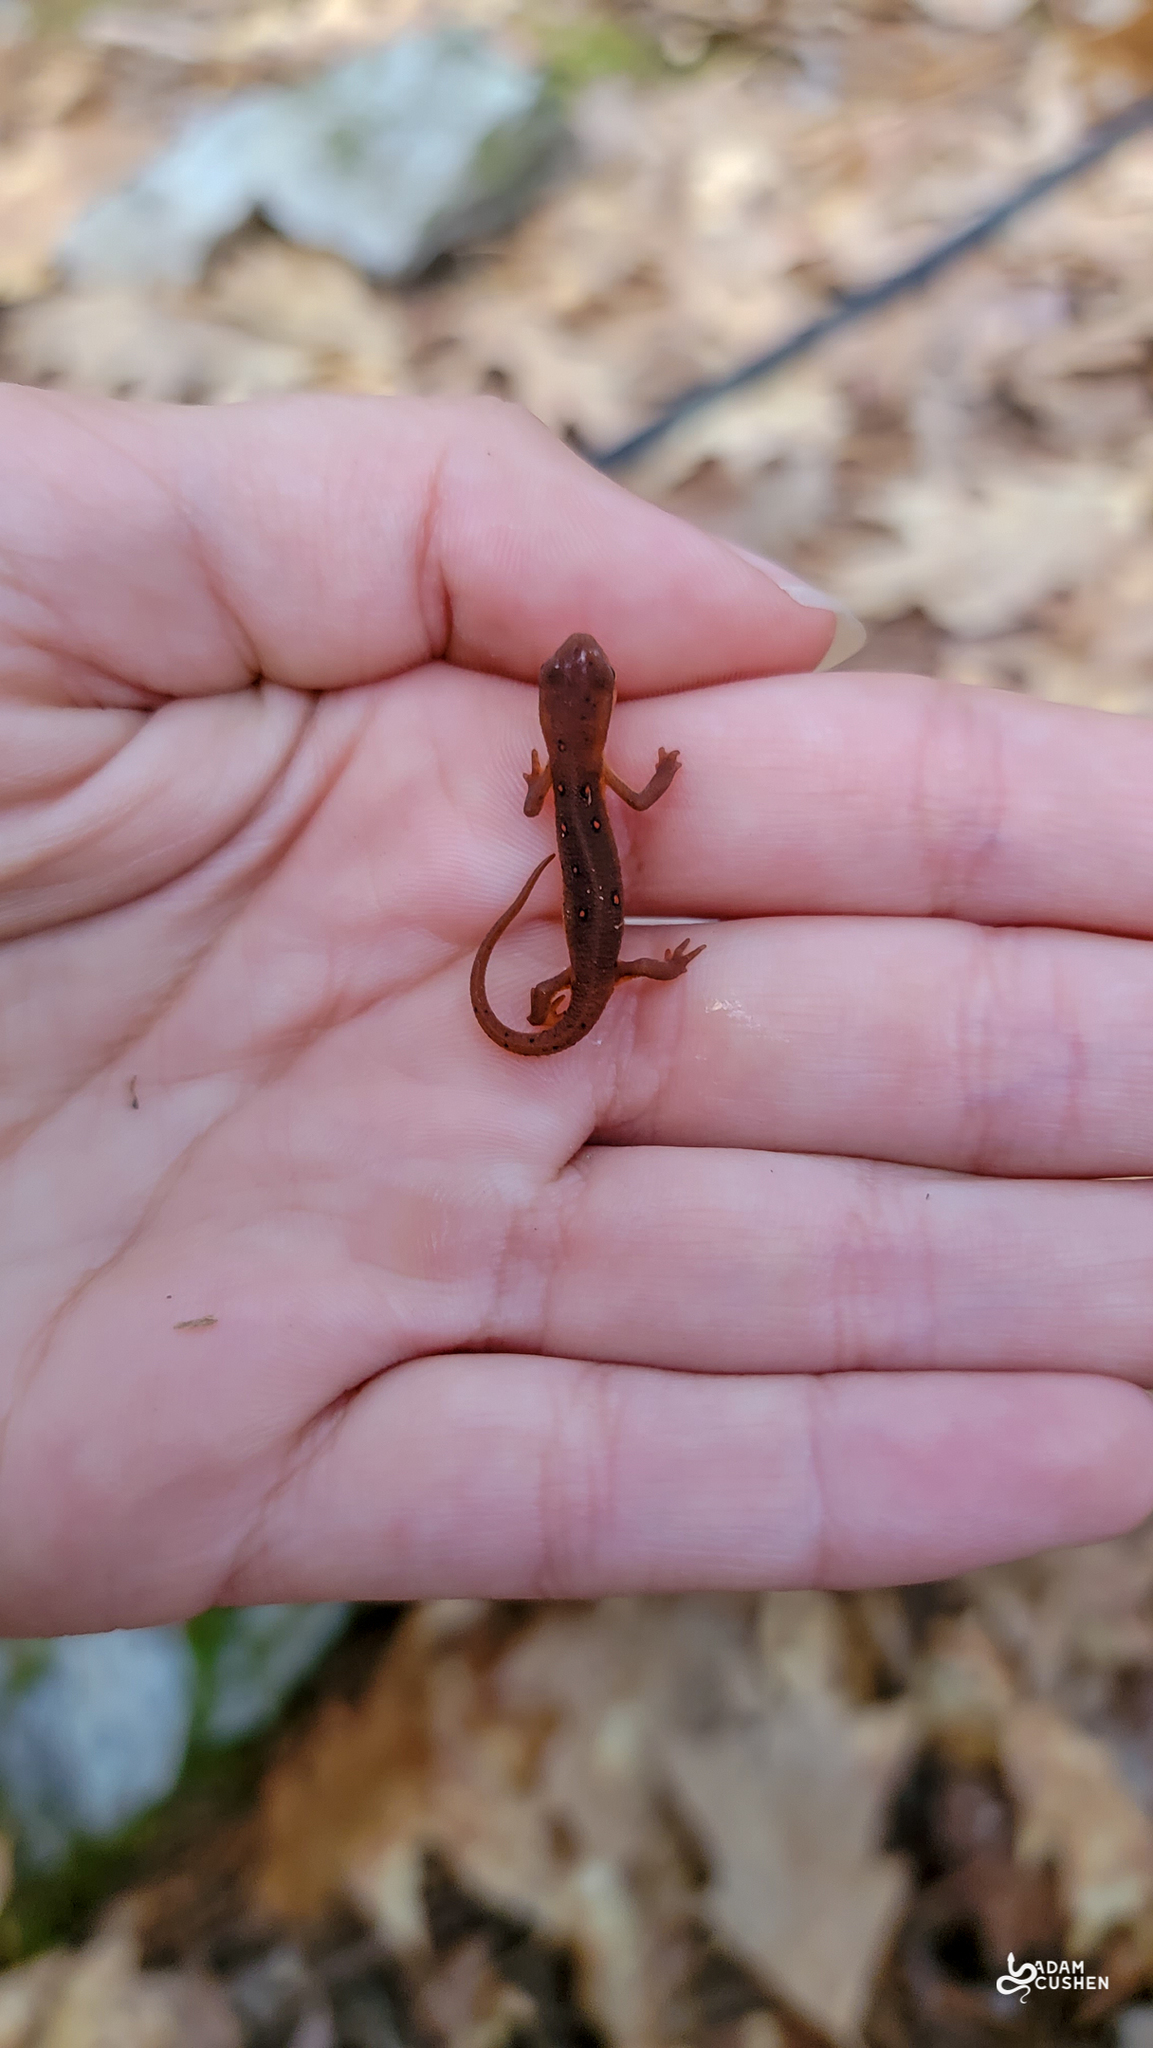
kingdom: Animalia
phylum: Chordata
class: Amphibia
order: Caudata
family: Salamandridae
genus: Notophthalmus
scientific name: Notophthalmus viridescens
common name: Eastern newt
